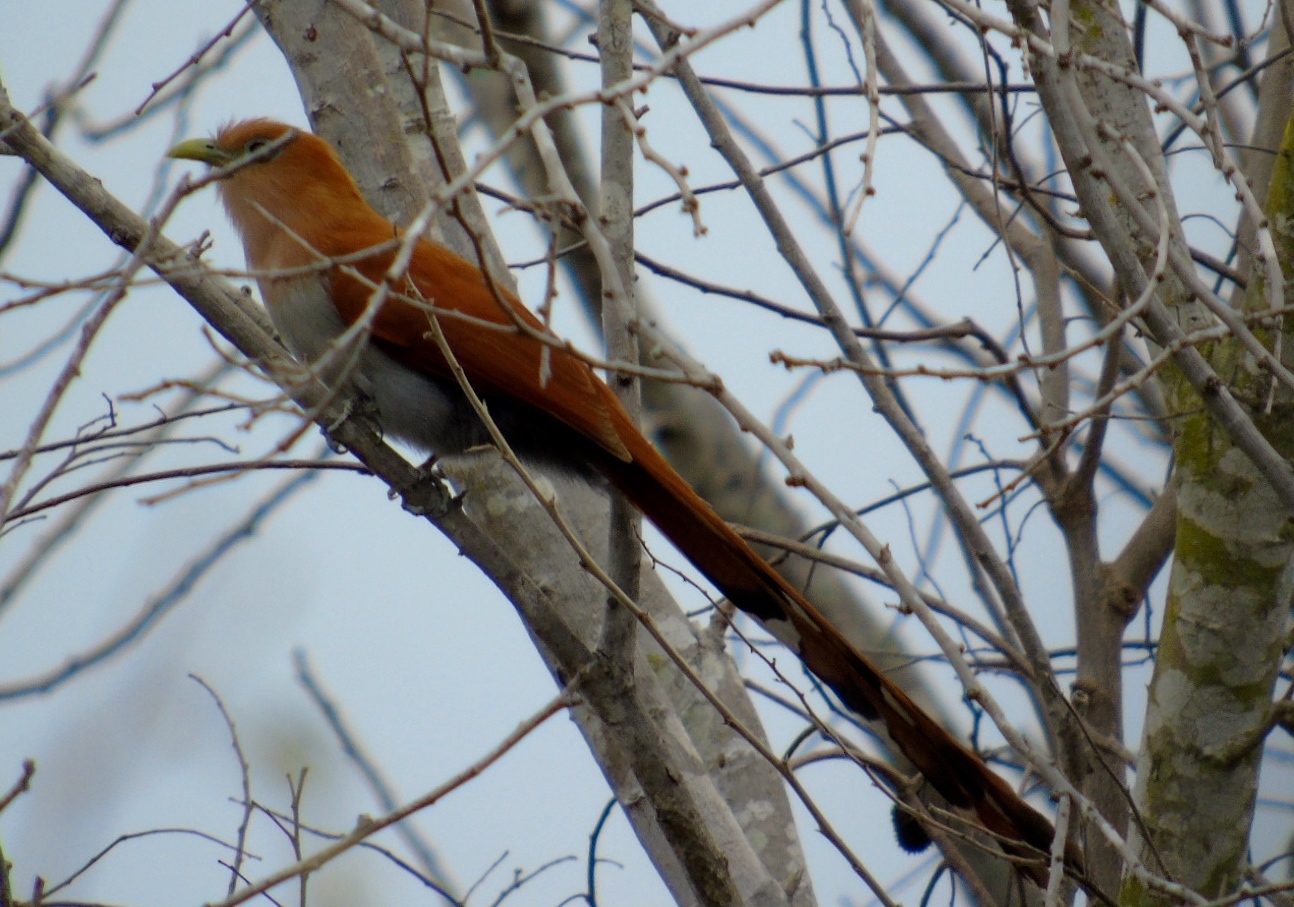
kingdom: Animalia
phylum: Chordata
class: Aves
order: Cuculiformes
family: Cuculidae
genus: Piaya
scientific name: Piaya cayana
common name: Squirrel cuckoo
